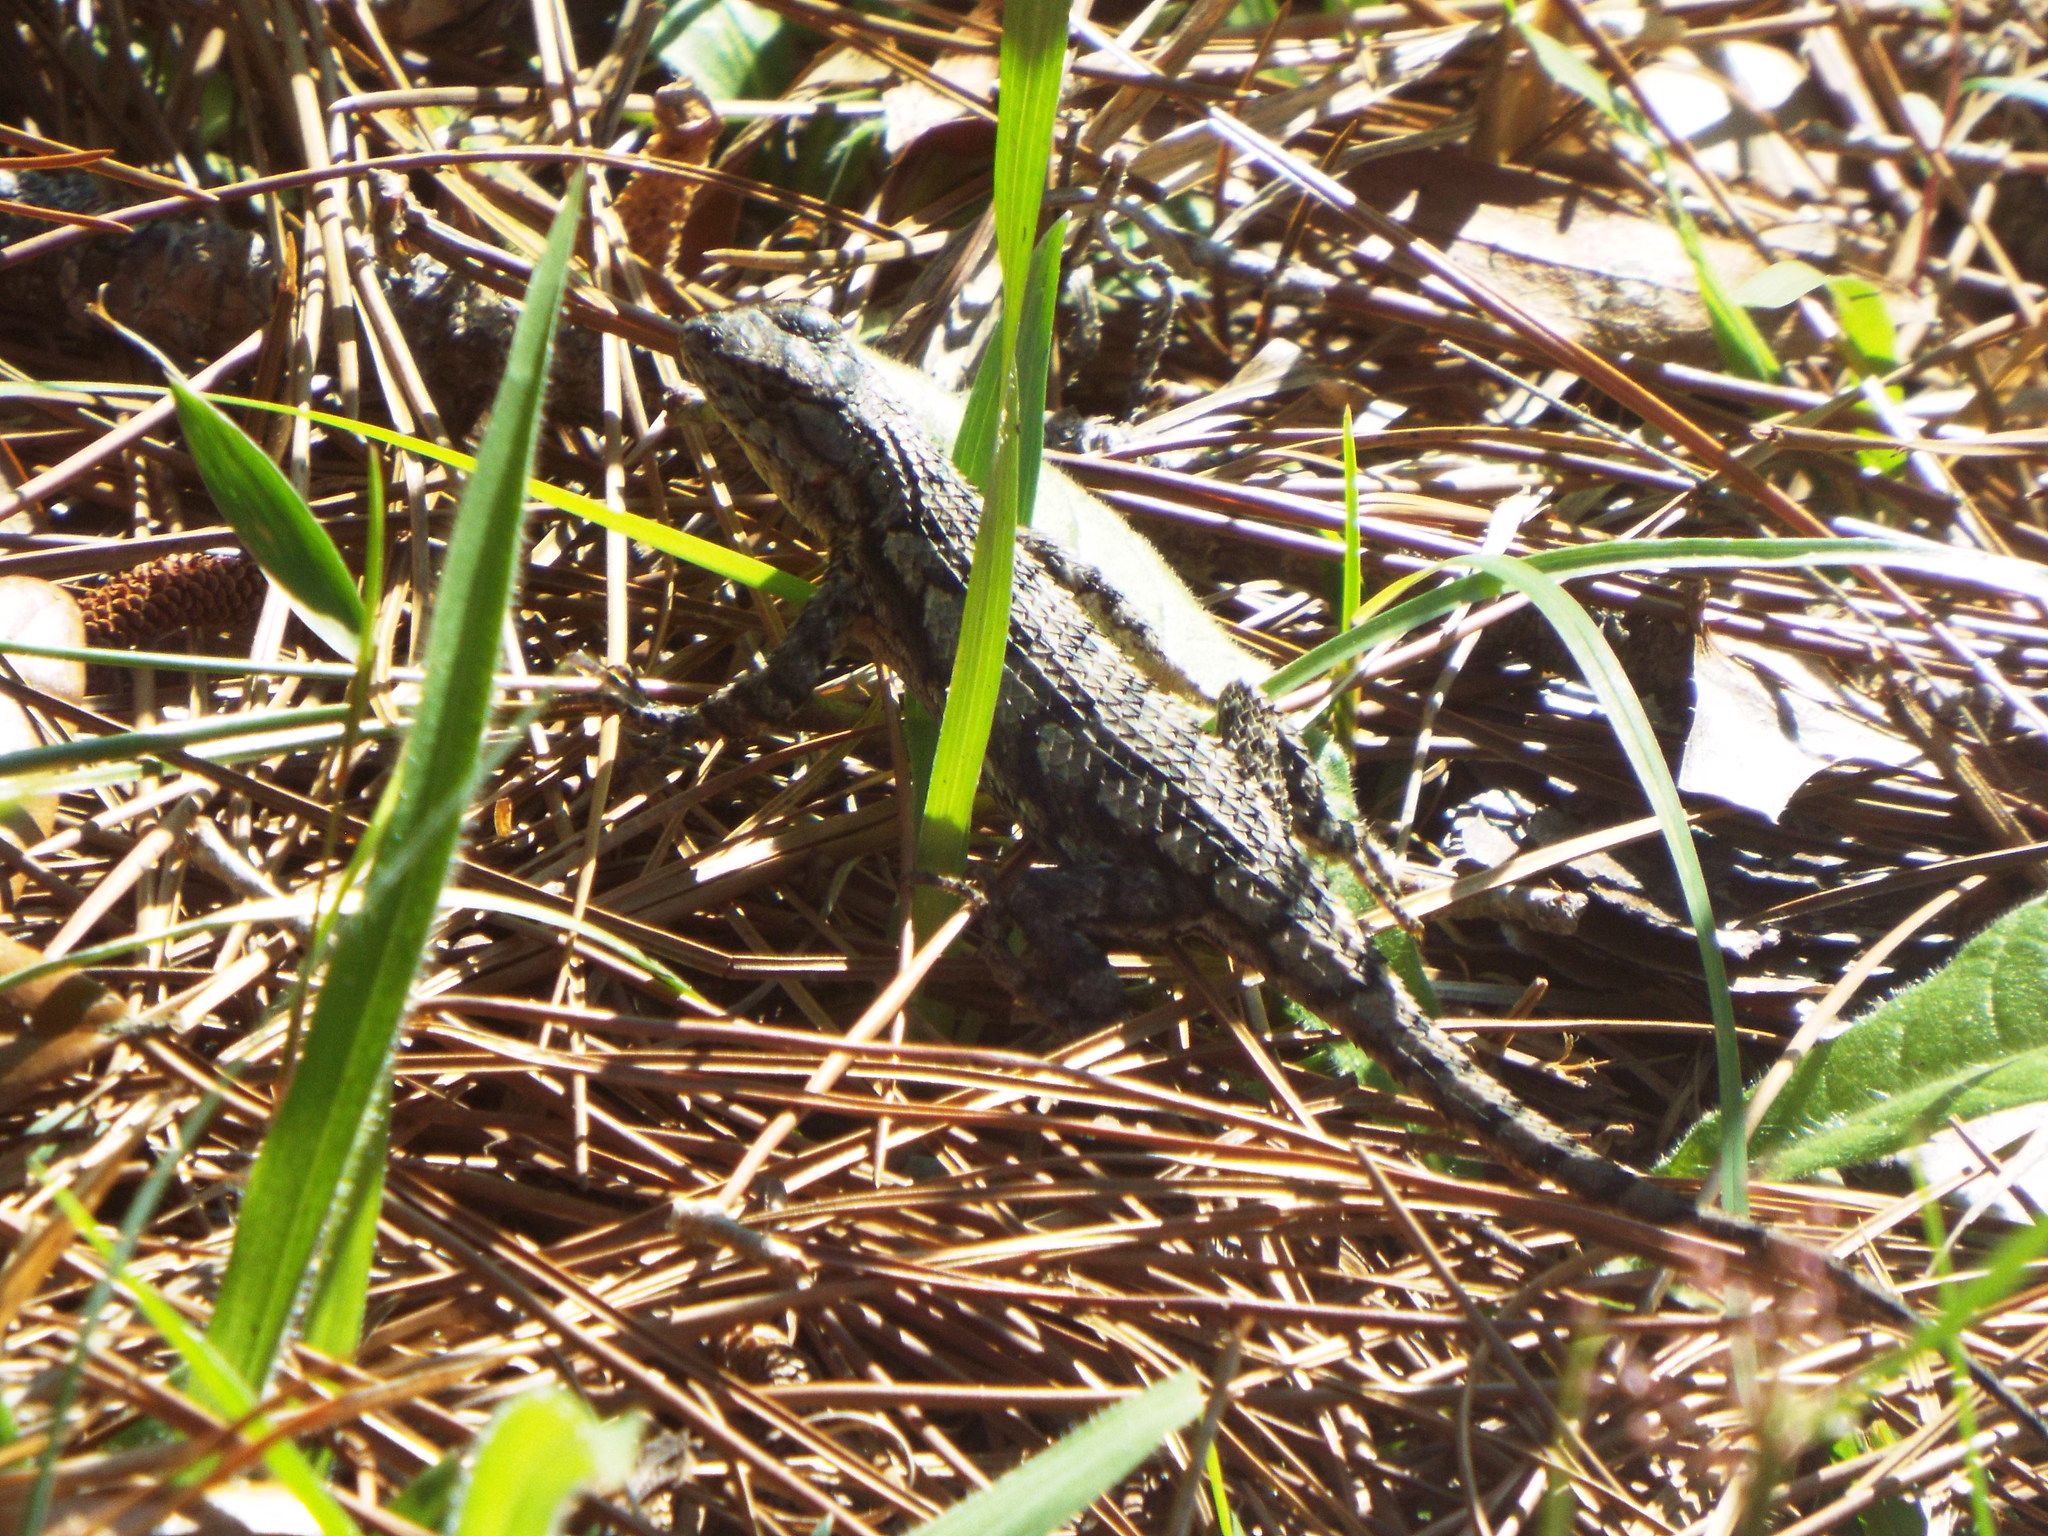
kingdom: Animalia
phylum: Chordata
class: Squamata
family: Phrynosomatidae
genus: Sceloporus
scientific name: Sceloporus undulatus
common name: Eastern fence lizard
